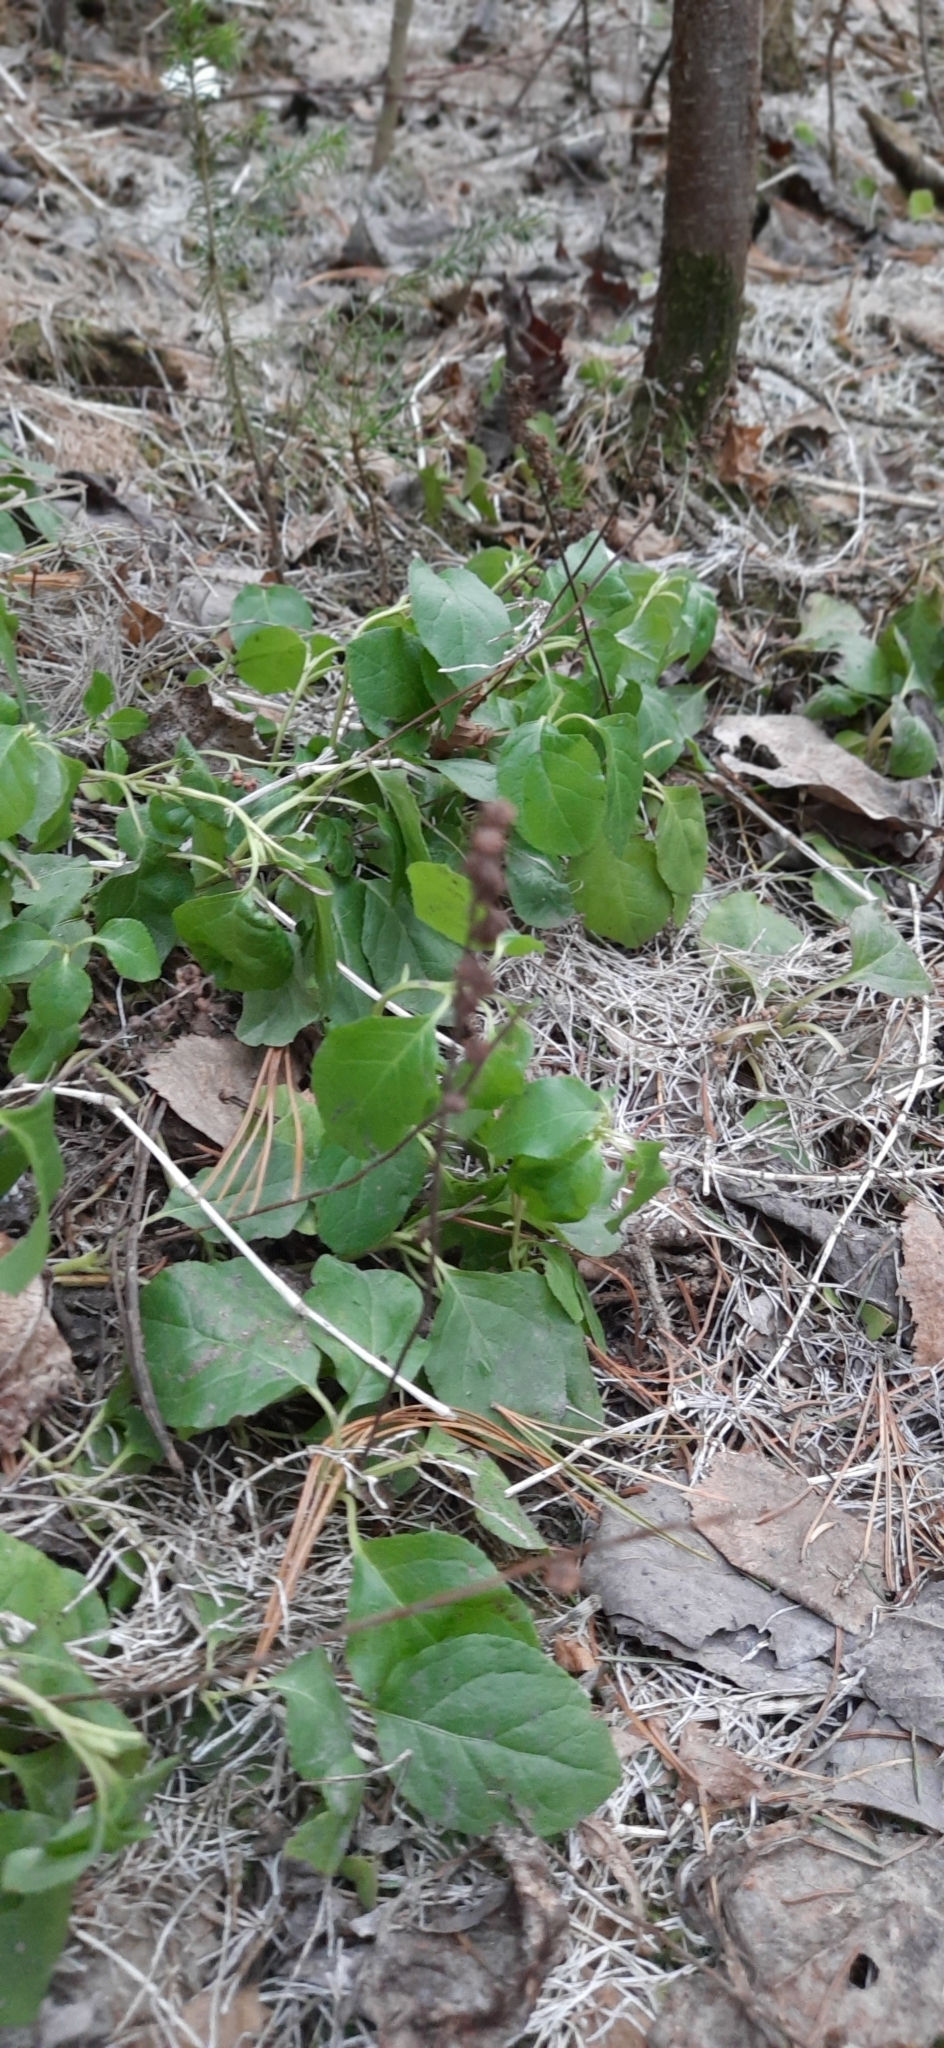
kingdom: Plantae
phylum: Tracheophyta
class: Magnoliopsida
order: Ericales
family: Ericaceae
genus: Orthilia
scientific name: Orthilia secunda
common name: One-sided orthilia
